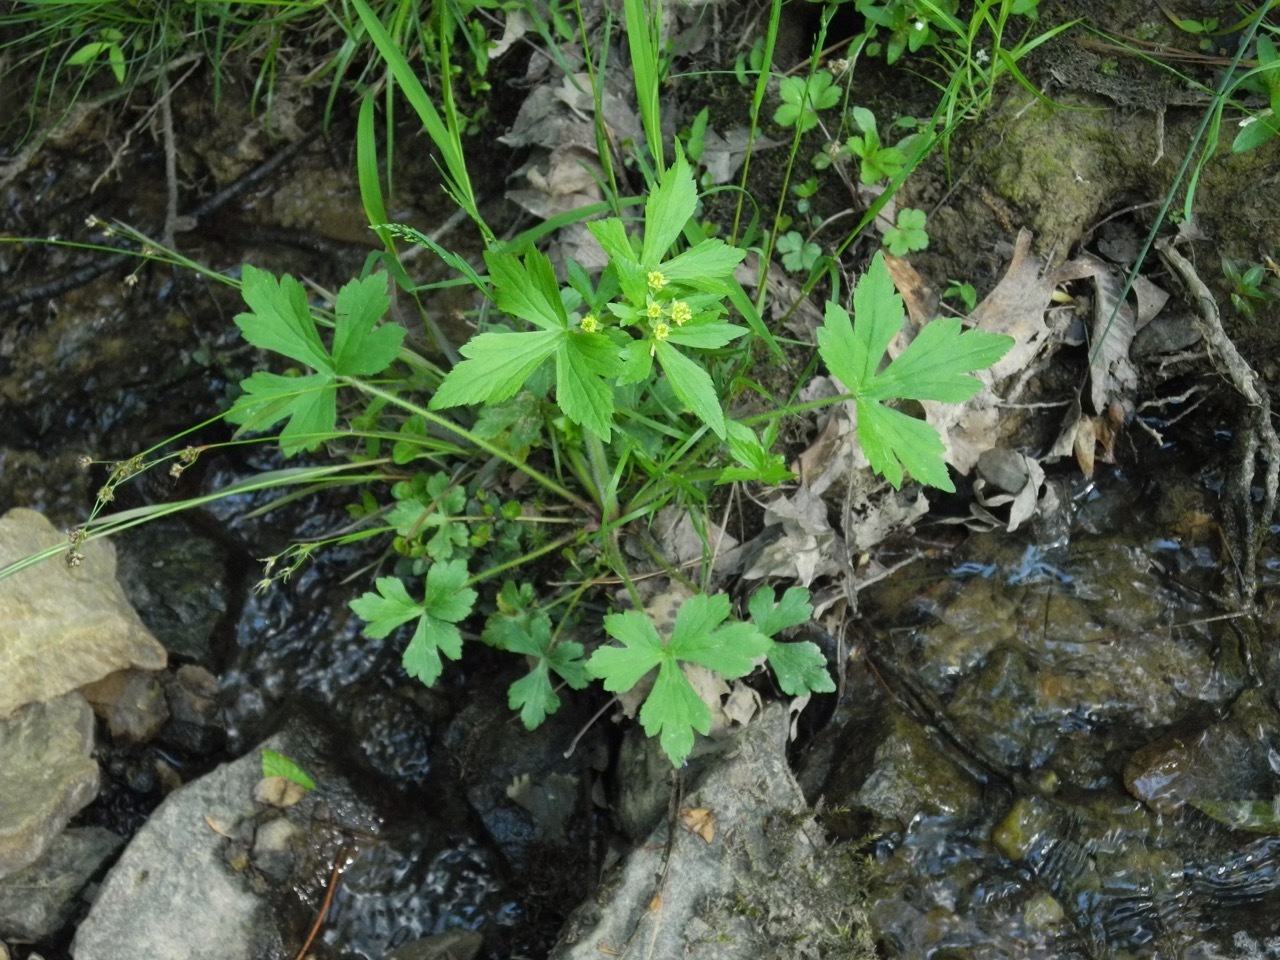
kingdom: Plantae
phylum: Tracheophyta
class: Magnoliopsida
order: Ranunculales
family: Ranunculaceae
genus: Ranunculus
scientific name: Ranunculus recurvatus
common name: Blisterwort
